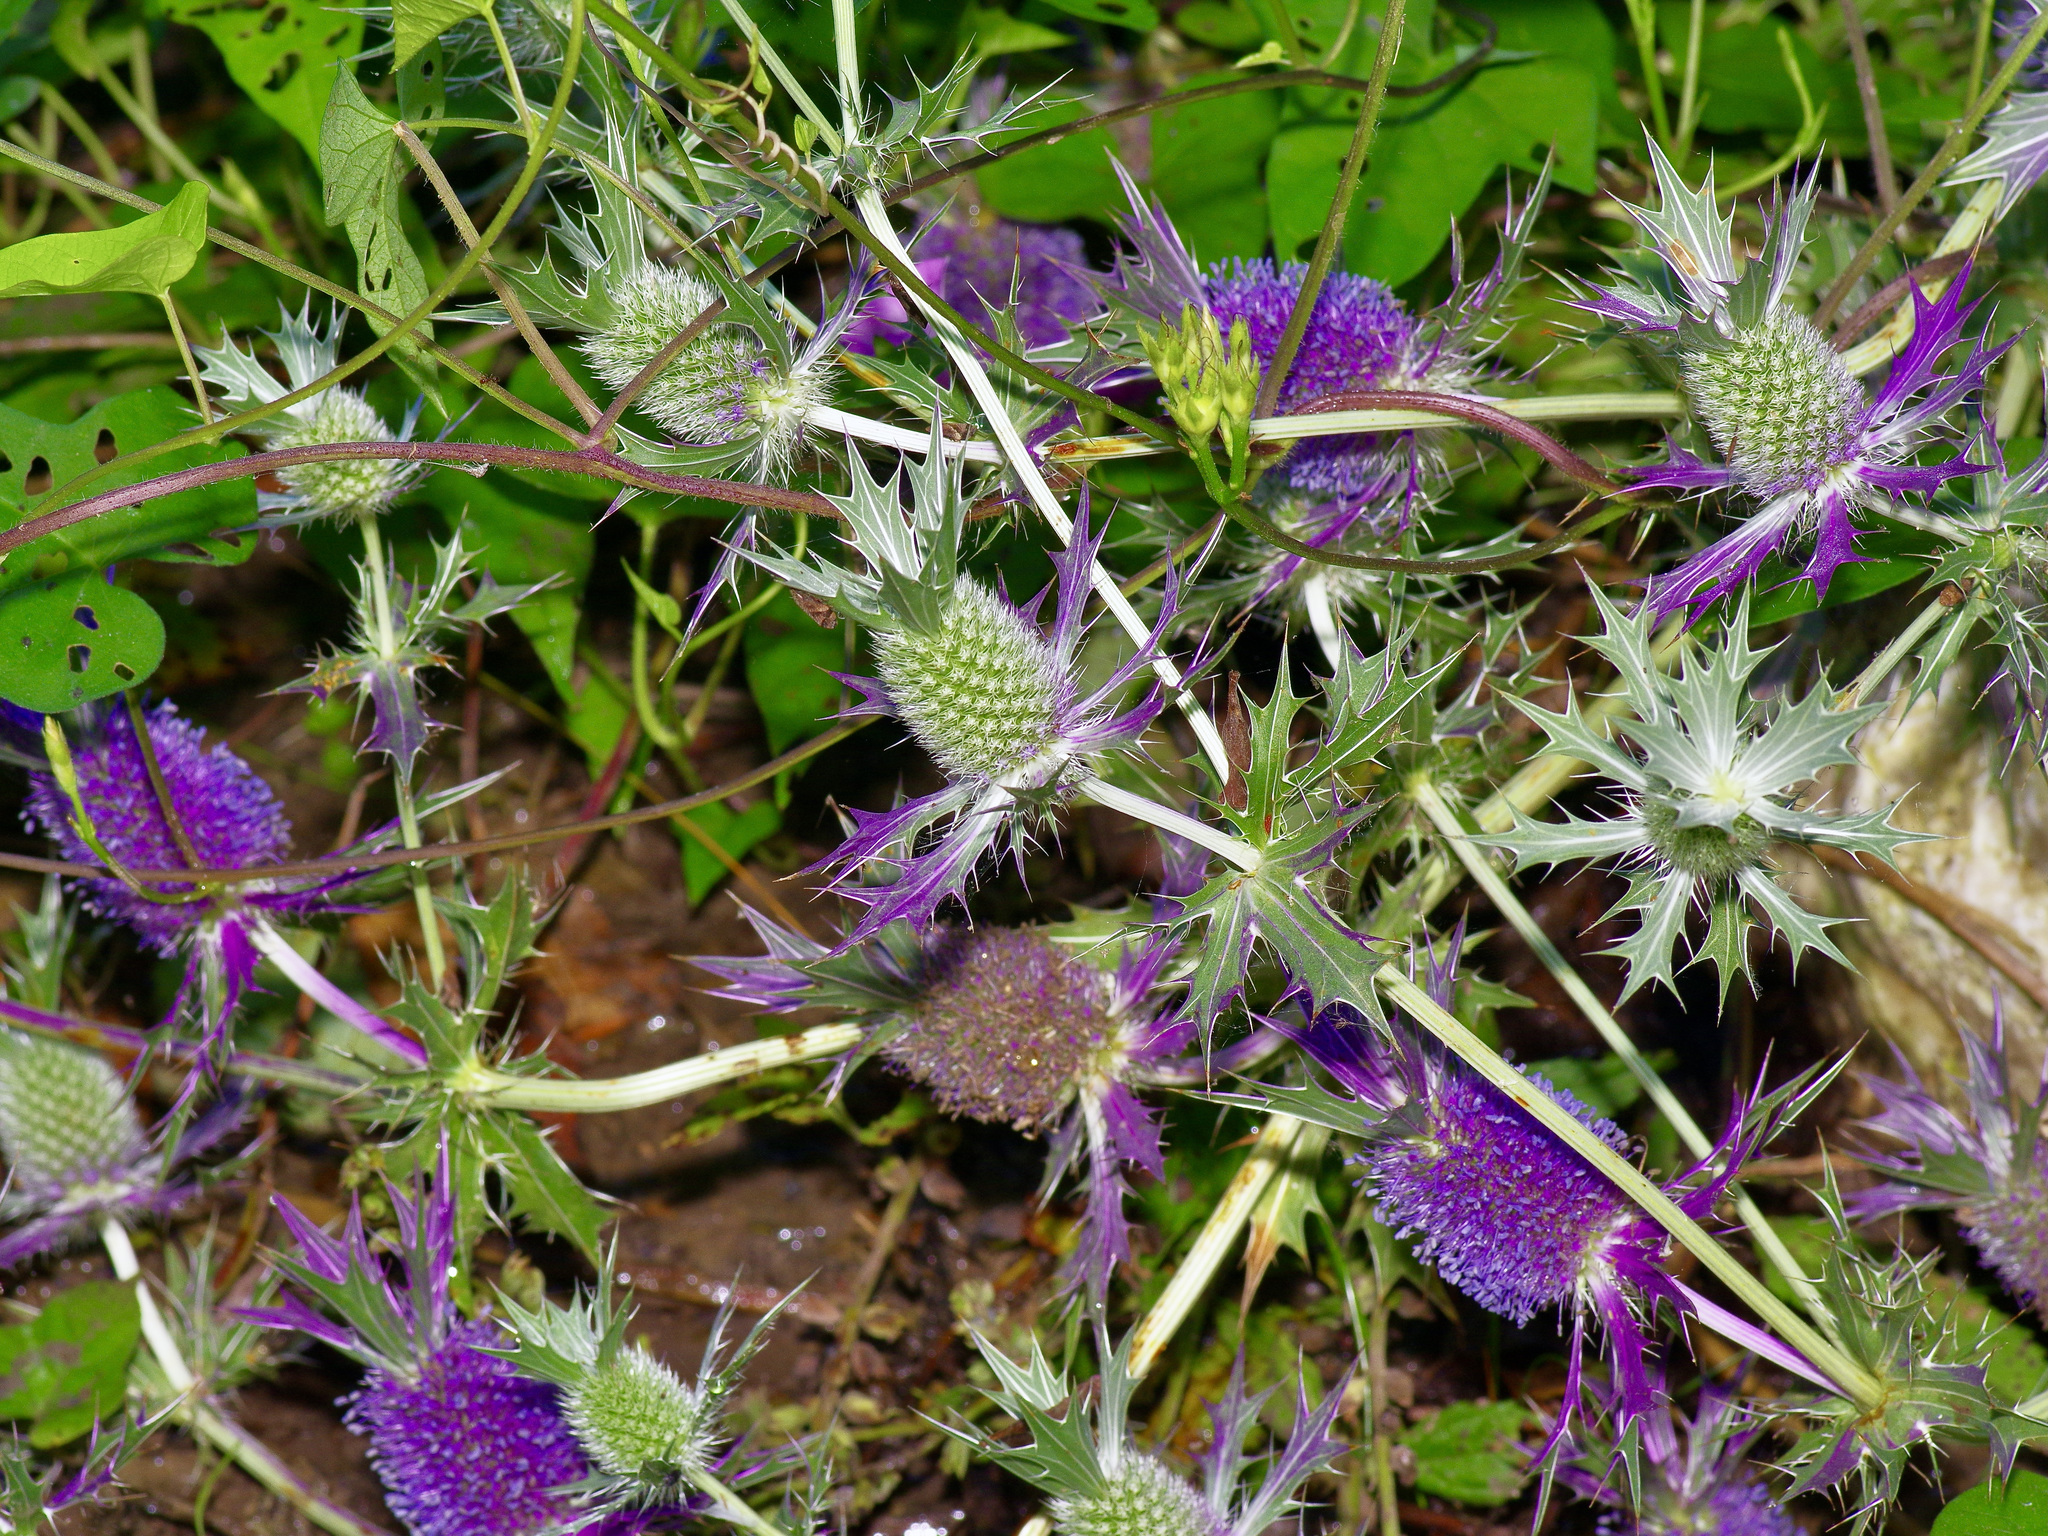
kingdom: Plantae
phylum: Tracheophyta
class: Magnoliopsida
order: Apiales
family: Apiaceae
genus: Eryngium
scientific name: Eryngium hookeri
